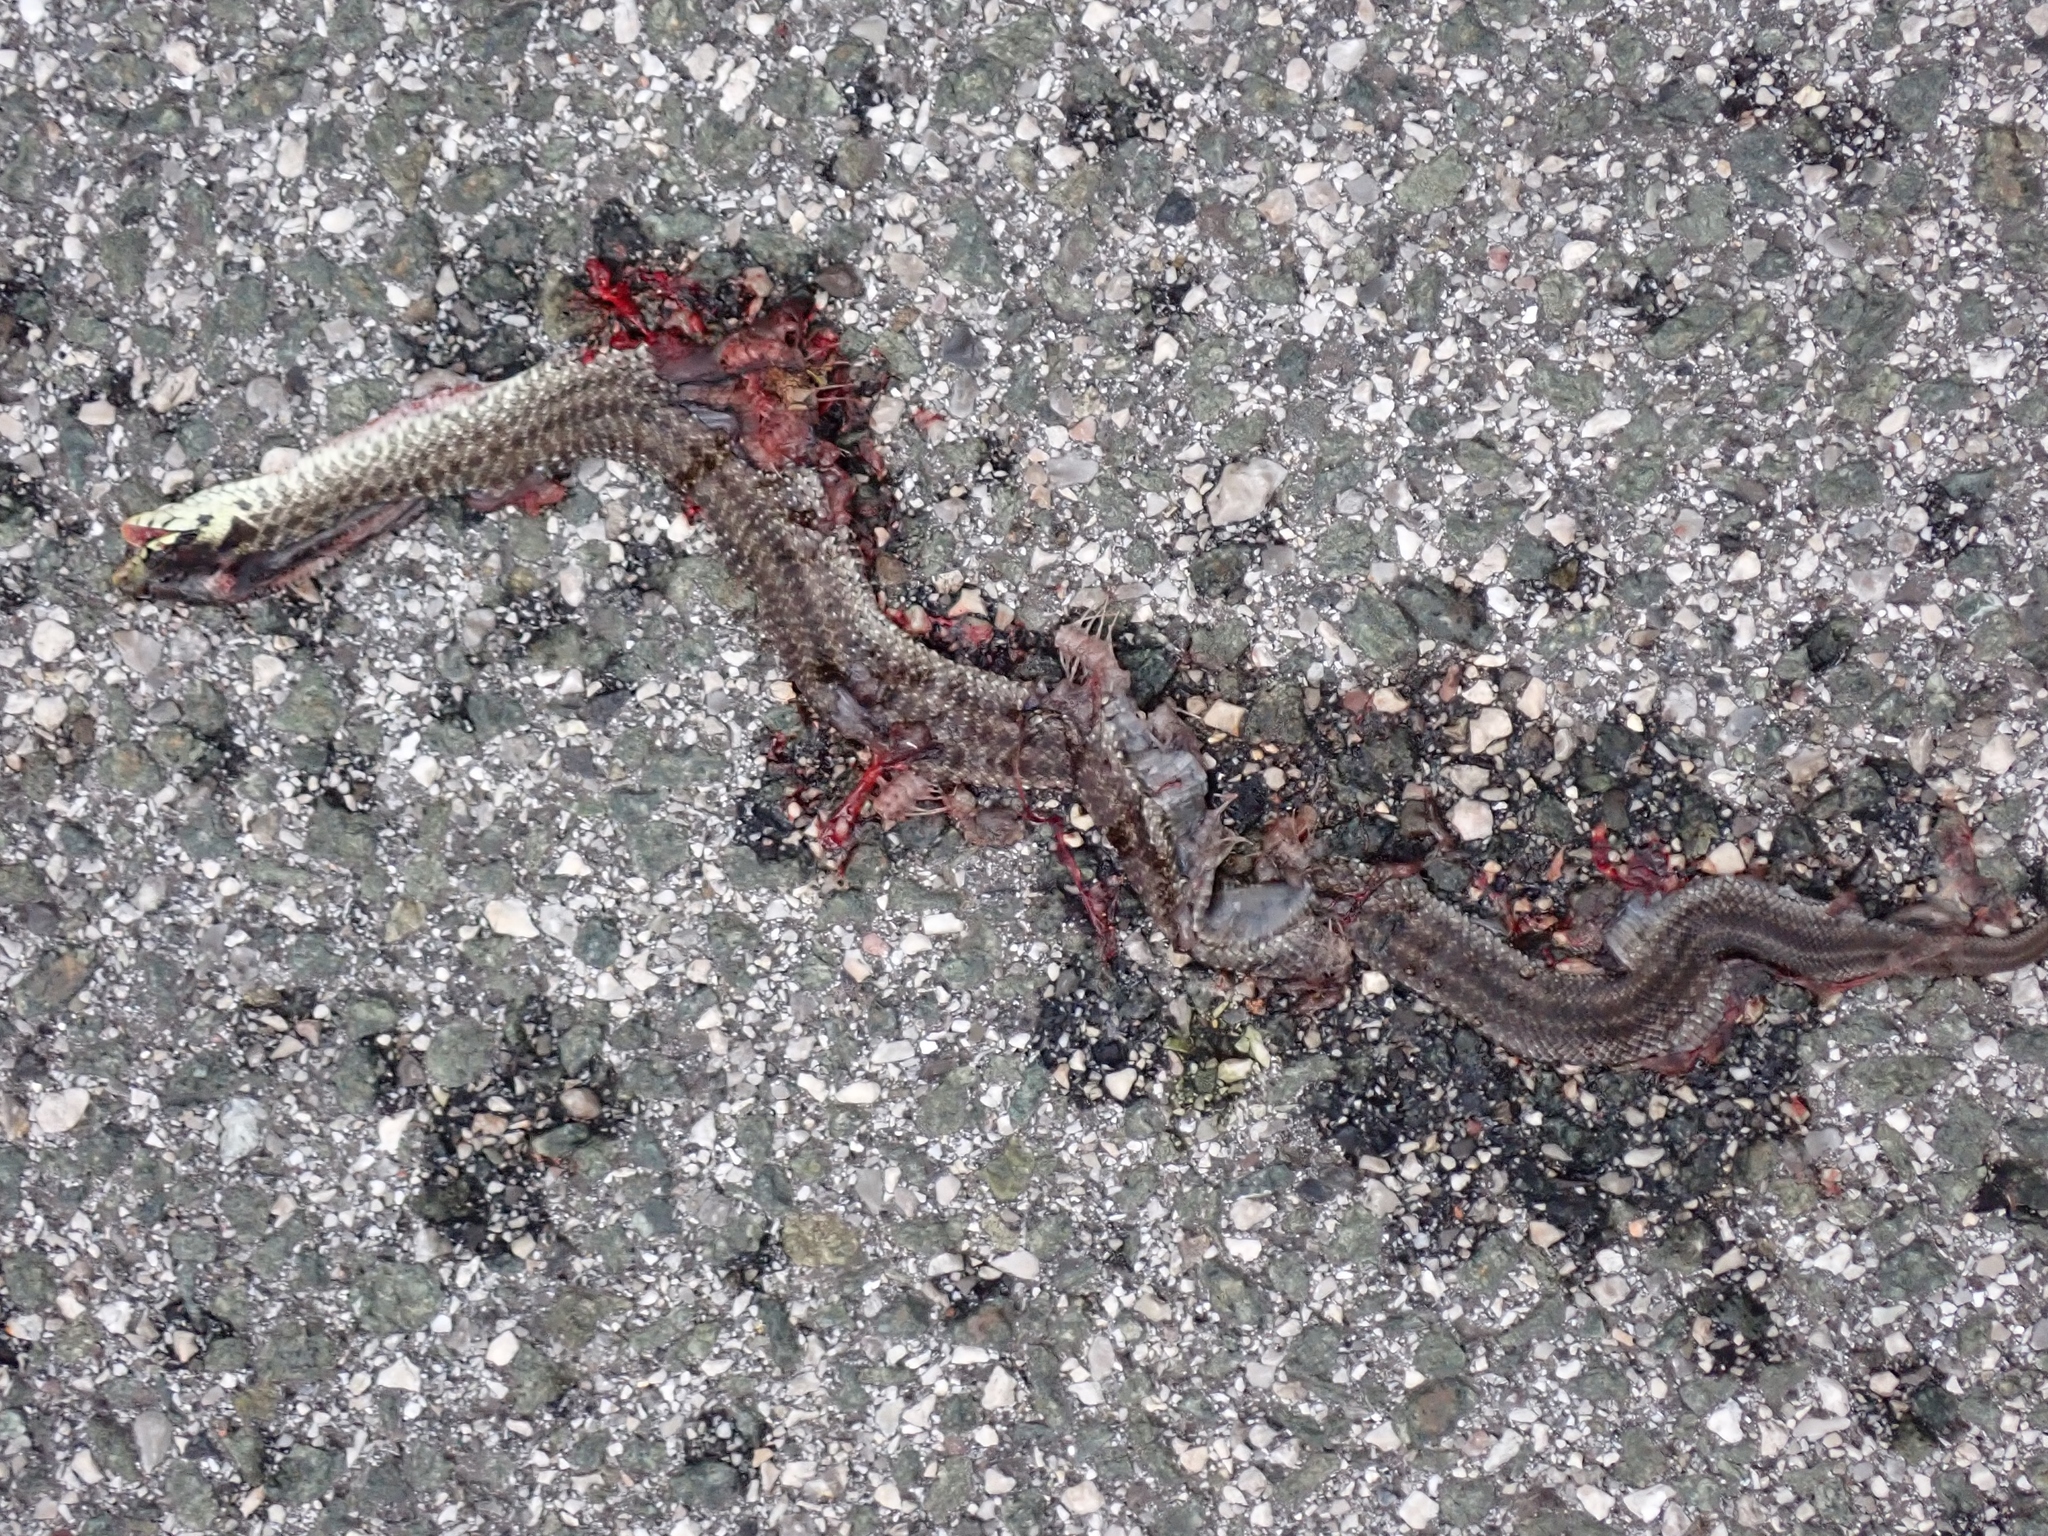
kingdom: Animalia
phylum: Chordata
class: Squamata
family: Colubridae
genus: Zamenis
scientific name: Zamenis longissimus
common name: Aesculapean snake
